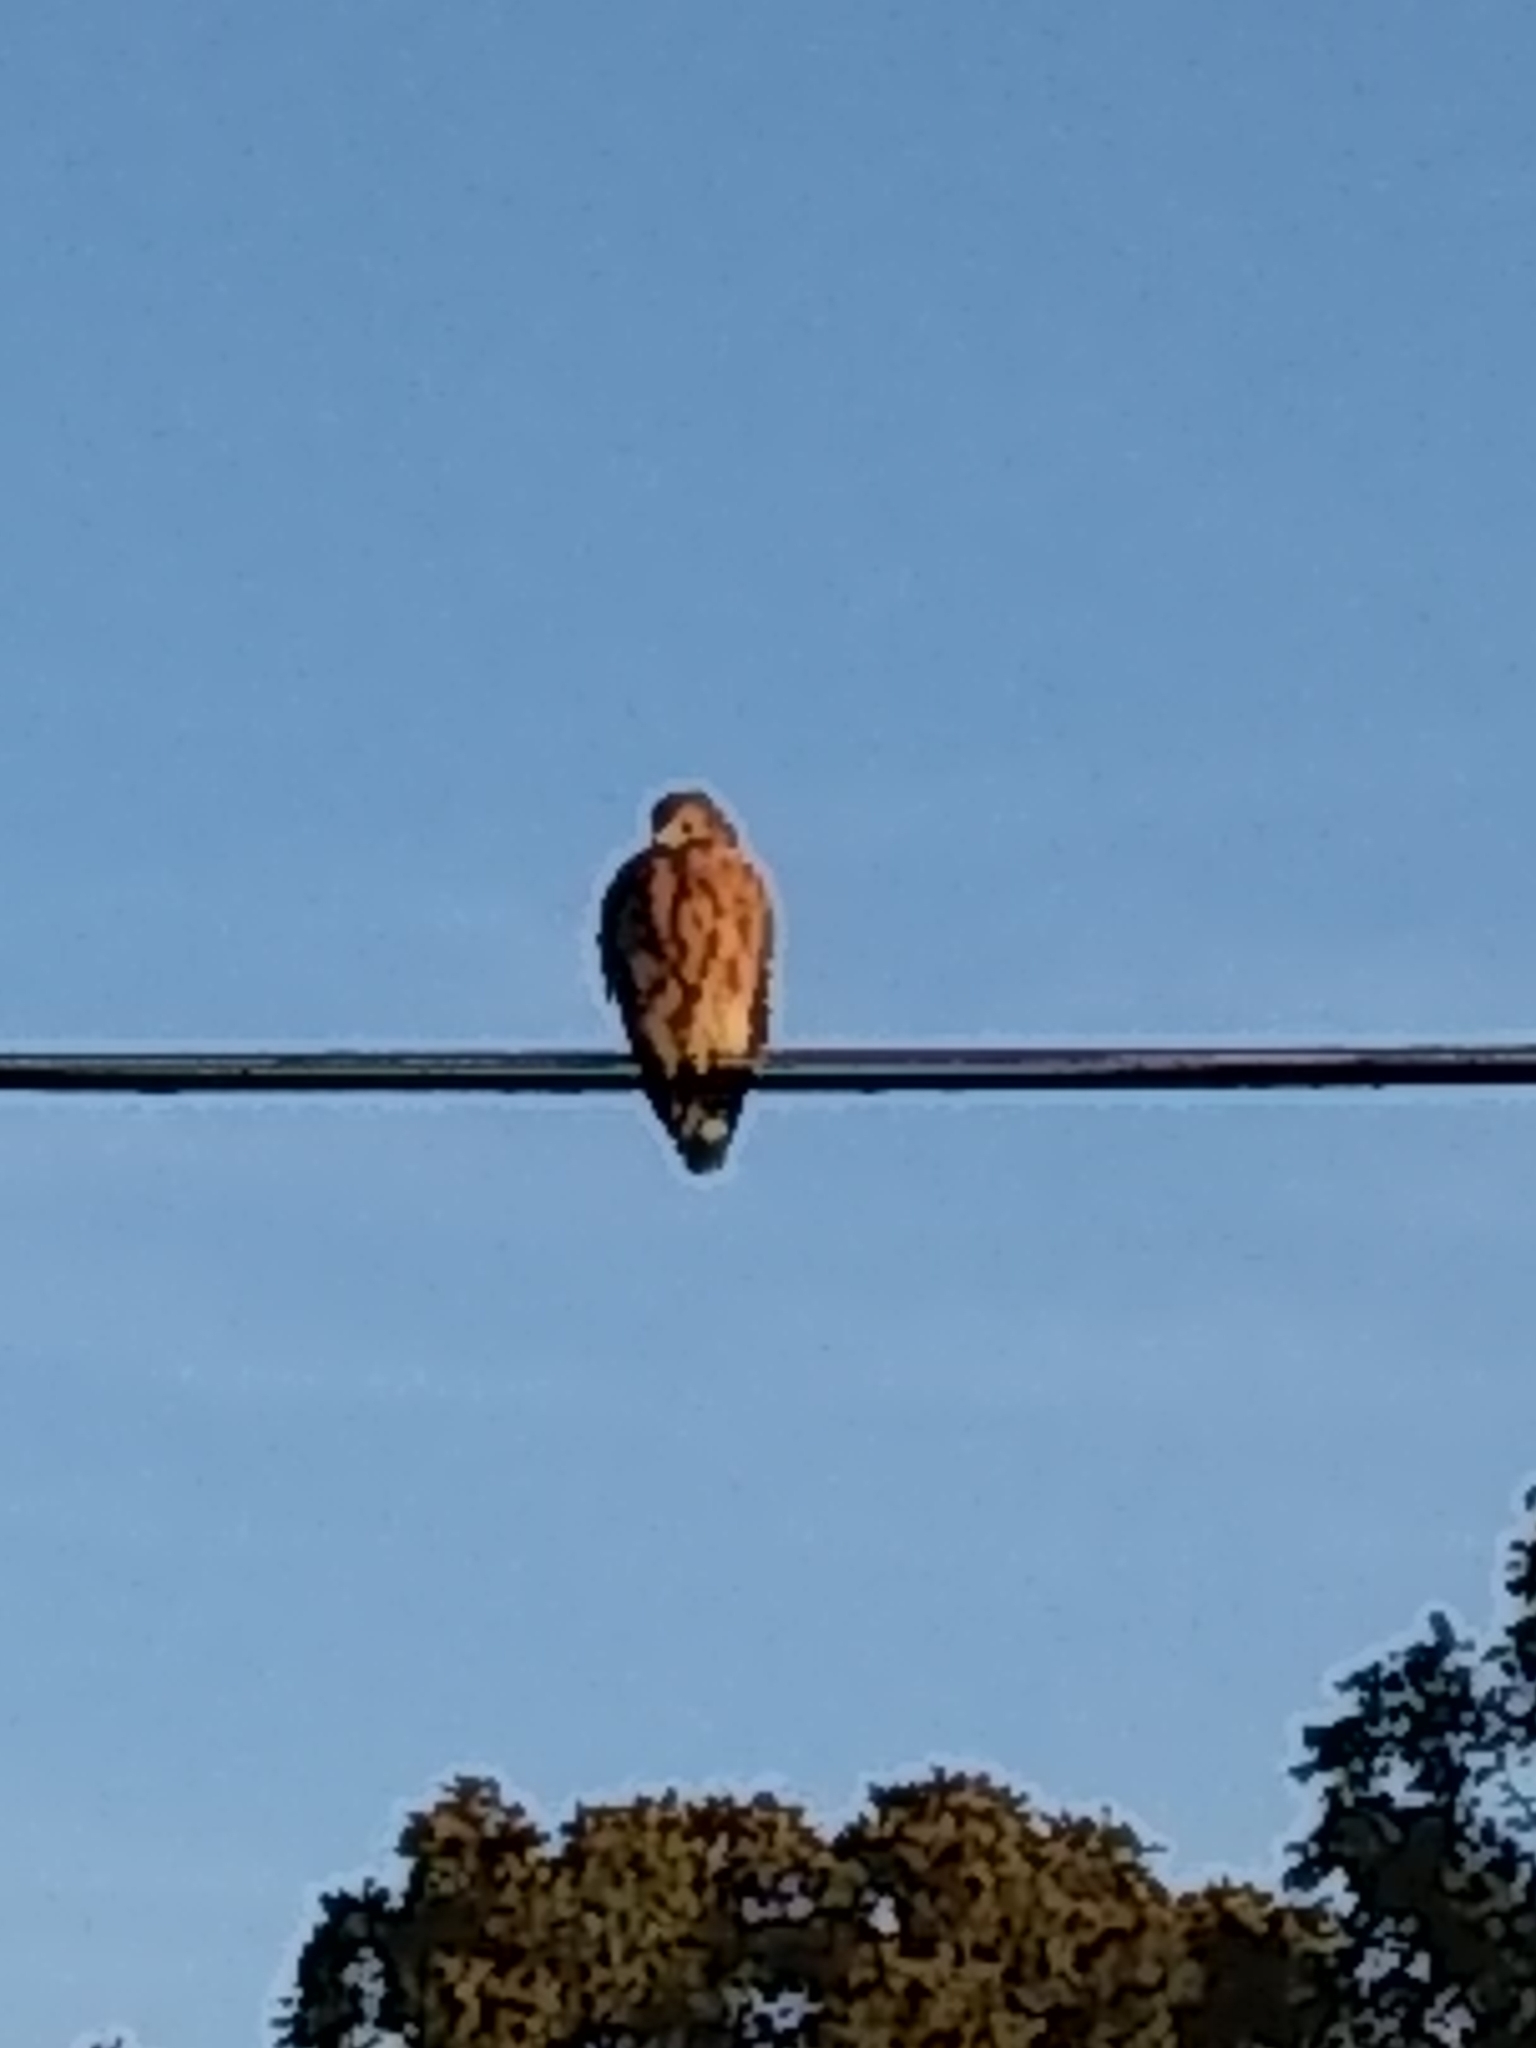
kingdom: Animalia
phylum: Chordata
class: Aves
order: Accipitriformes
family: Accipitridae
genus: Buteo
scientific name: Buteo lineatus
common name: Red-shouldered hawk
